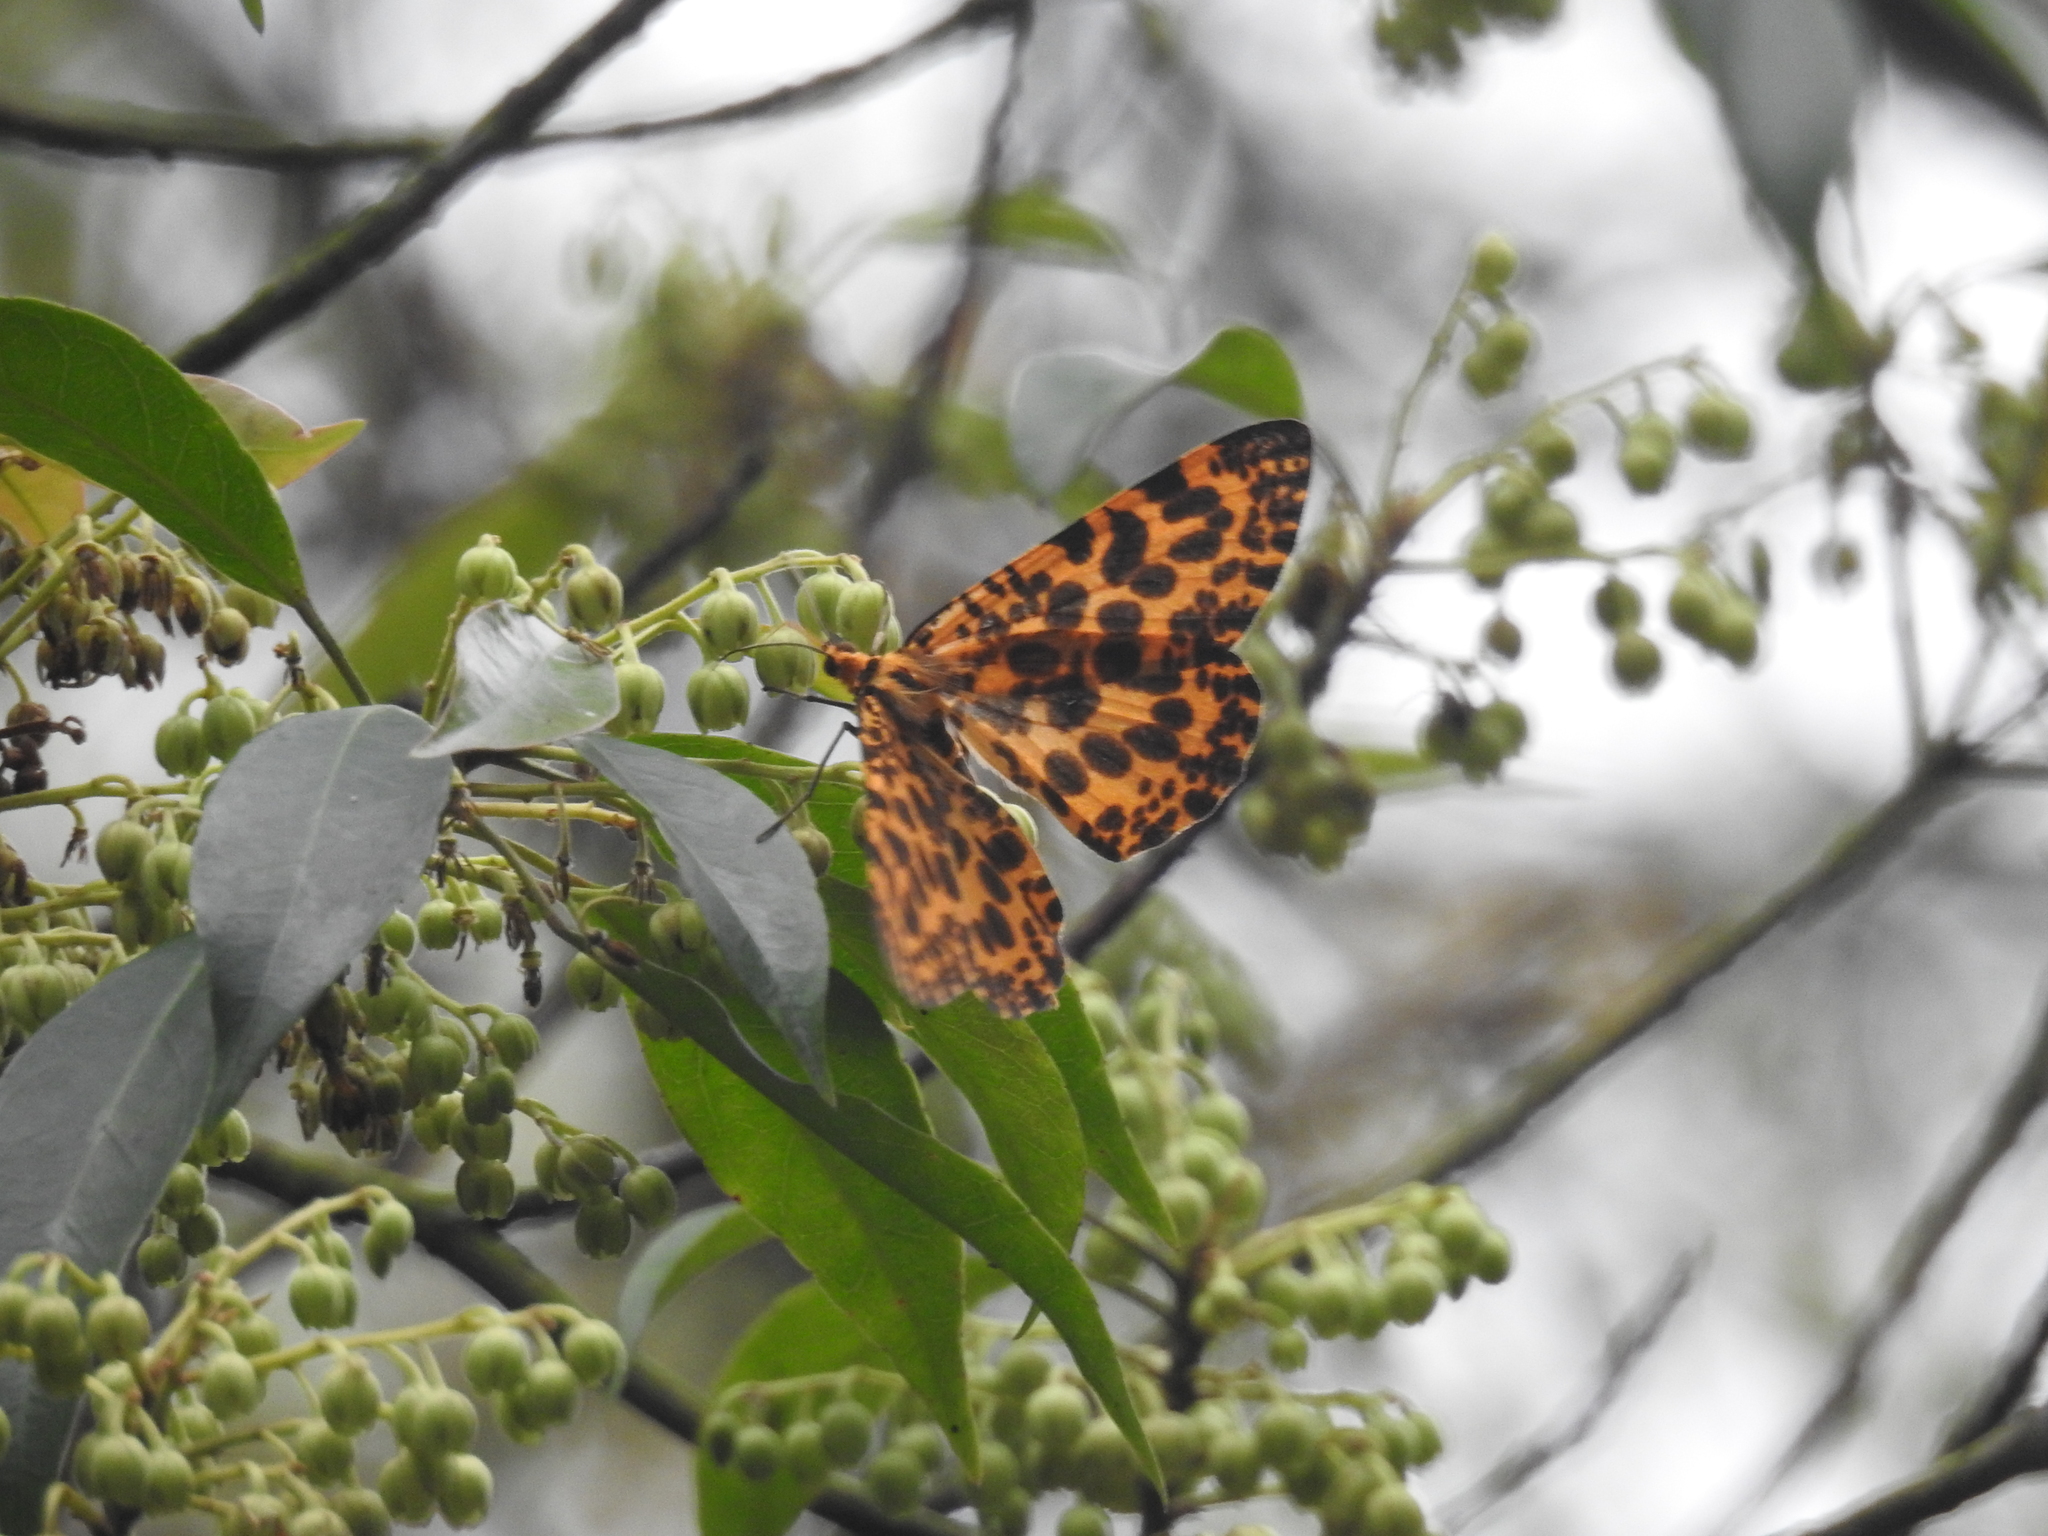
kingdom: Animalia
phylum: Arthropoda
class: Insecta
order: Lepidoptera
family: Geometridae
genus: Obeidia
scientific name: Obeidia Epobeidia tigrata
